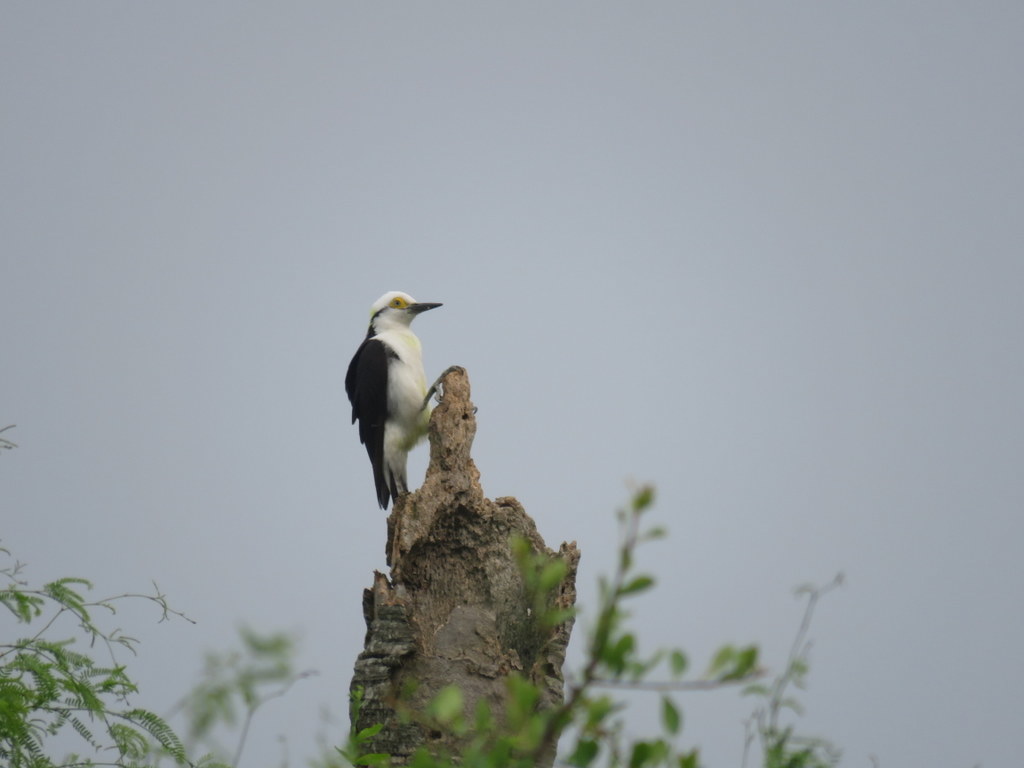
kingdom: Animalia
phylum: Chordata
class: Aves
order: Piciformes
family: Picidae
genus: Melanerpes
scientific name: Melanerpes candidus
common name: White woodpecker
